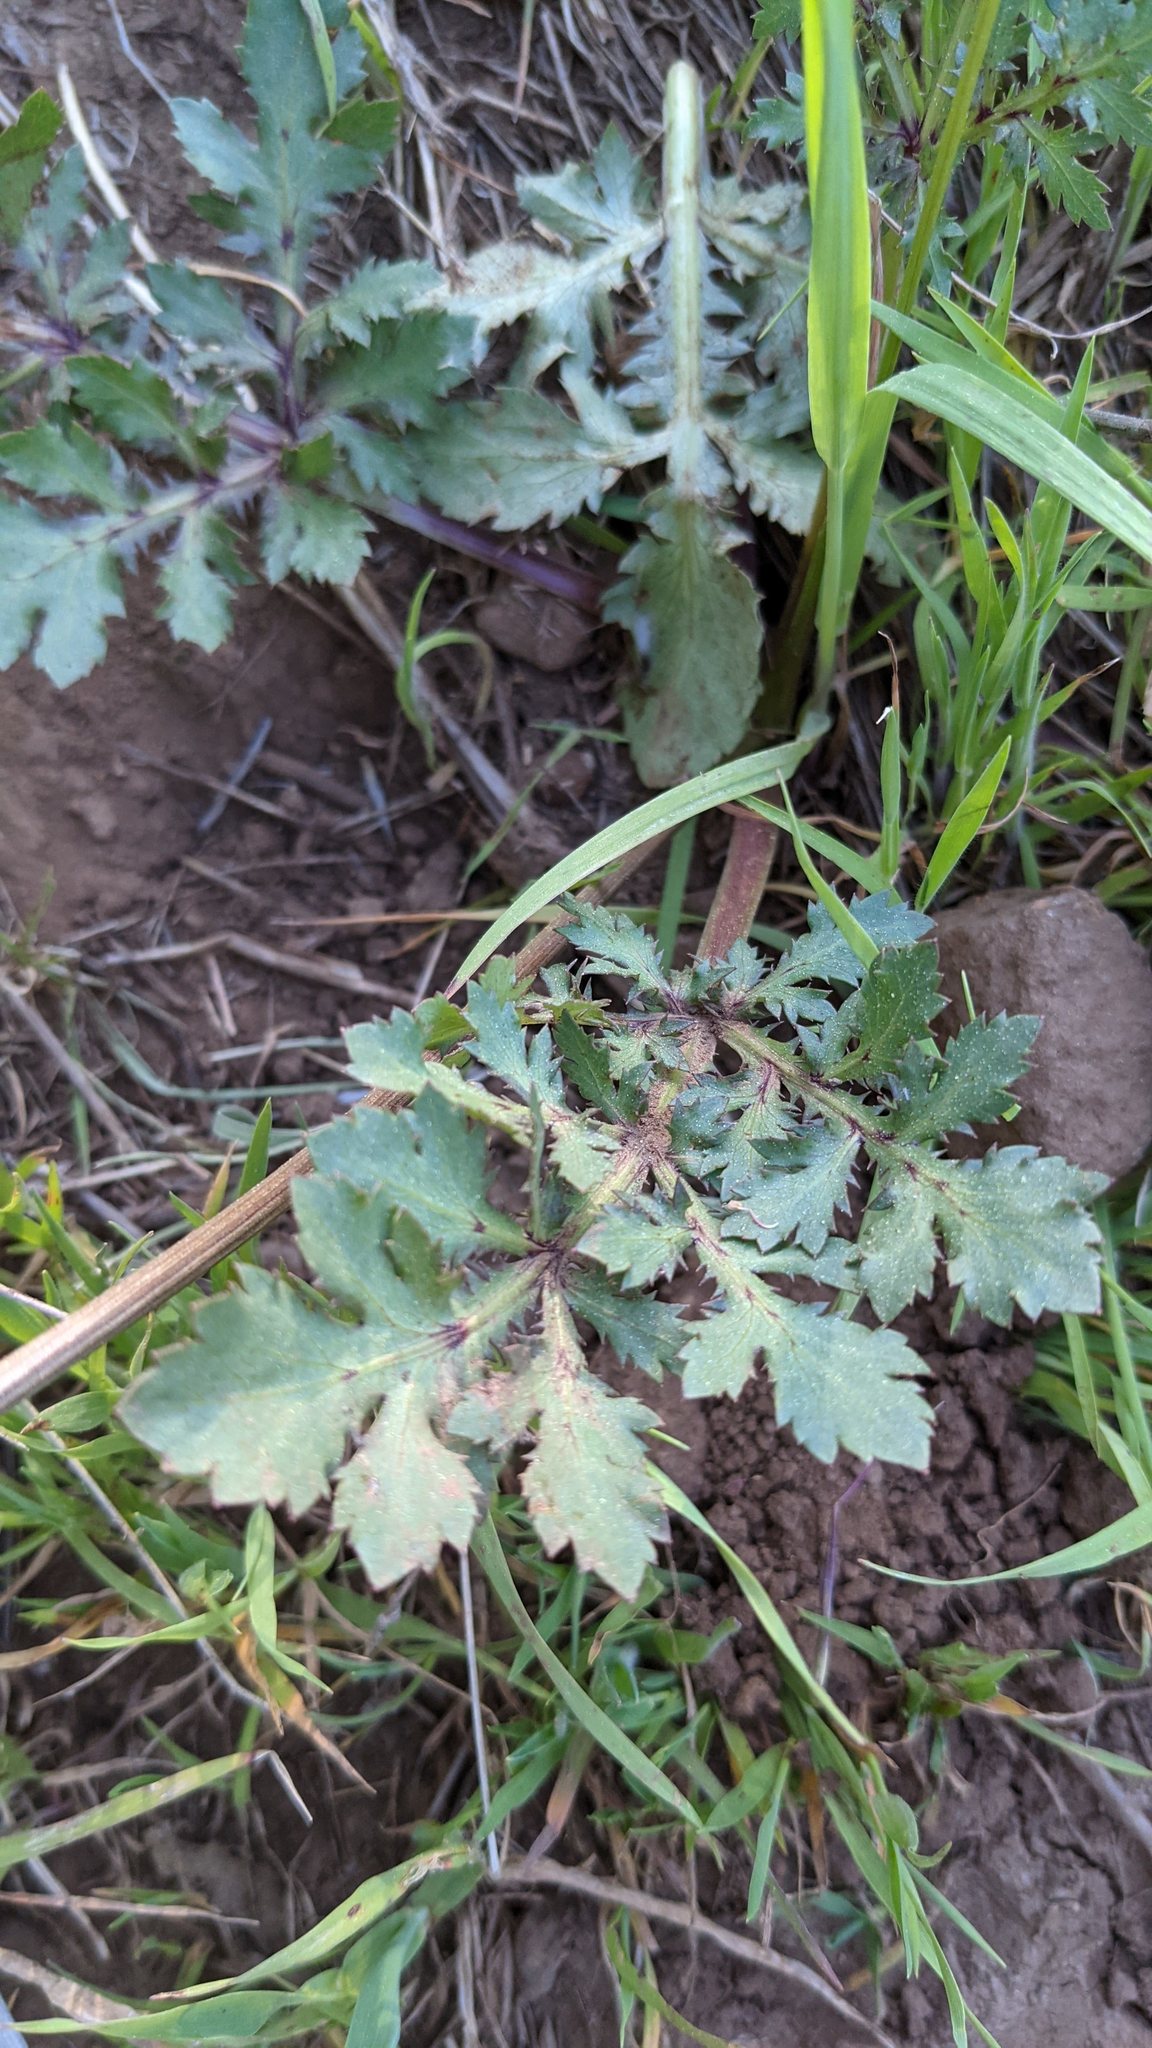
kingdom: Plantae
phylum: Tracheophyta
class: Magnoliopsida
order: Apiales
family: Apiaceae
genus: Sanicula
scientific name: Sanicula bipinnatifida
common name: Shoe-buttons
